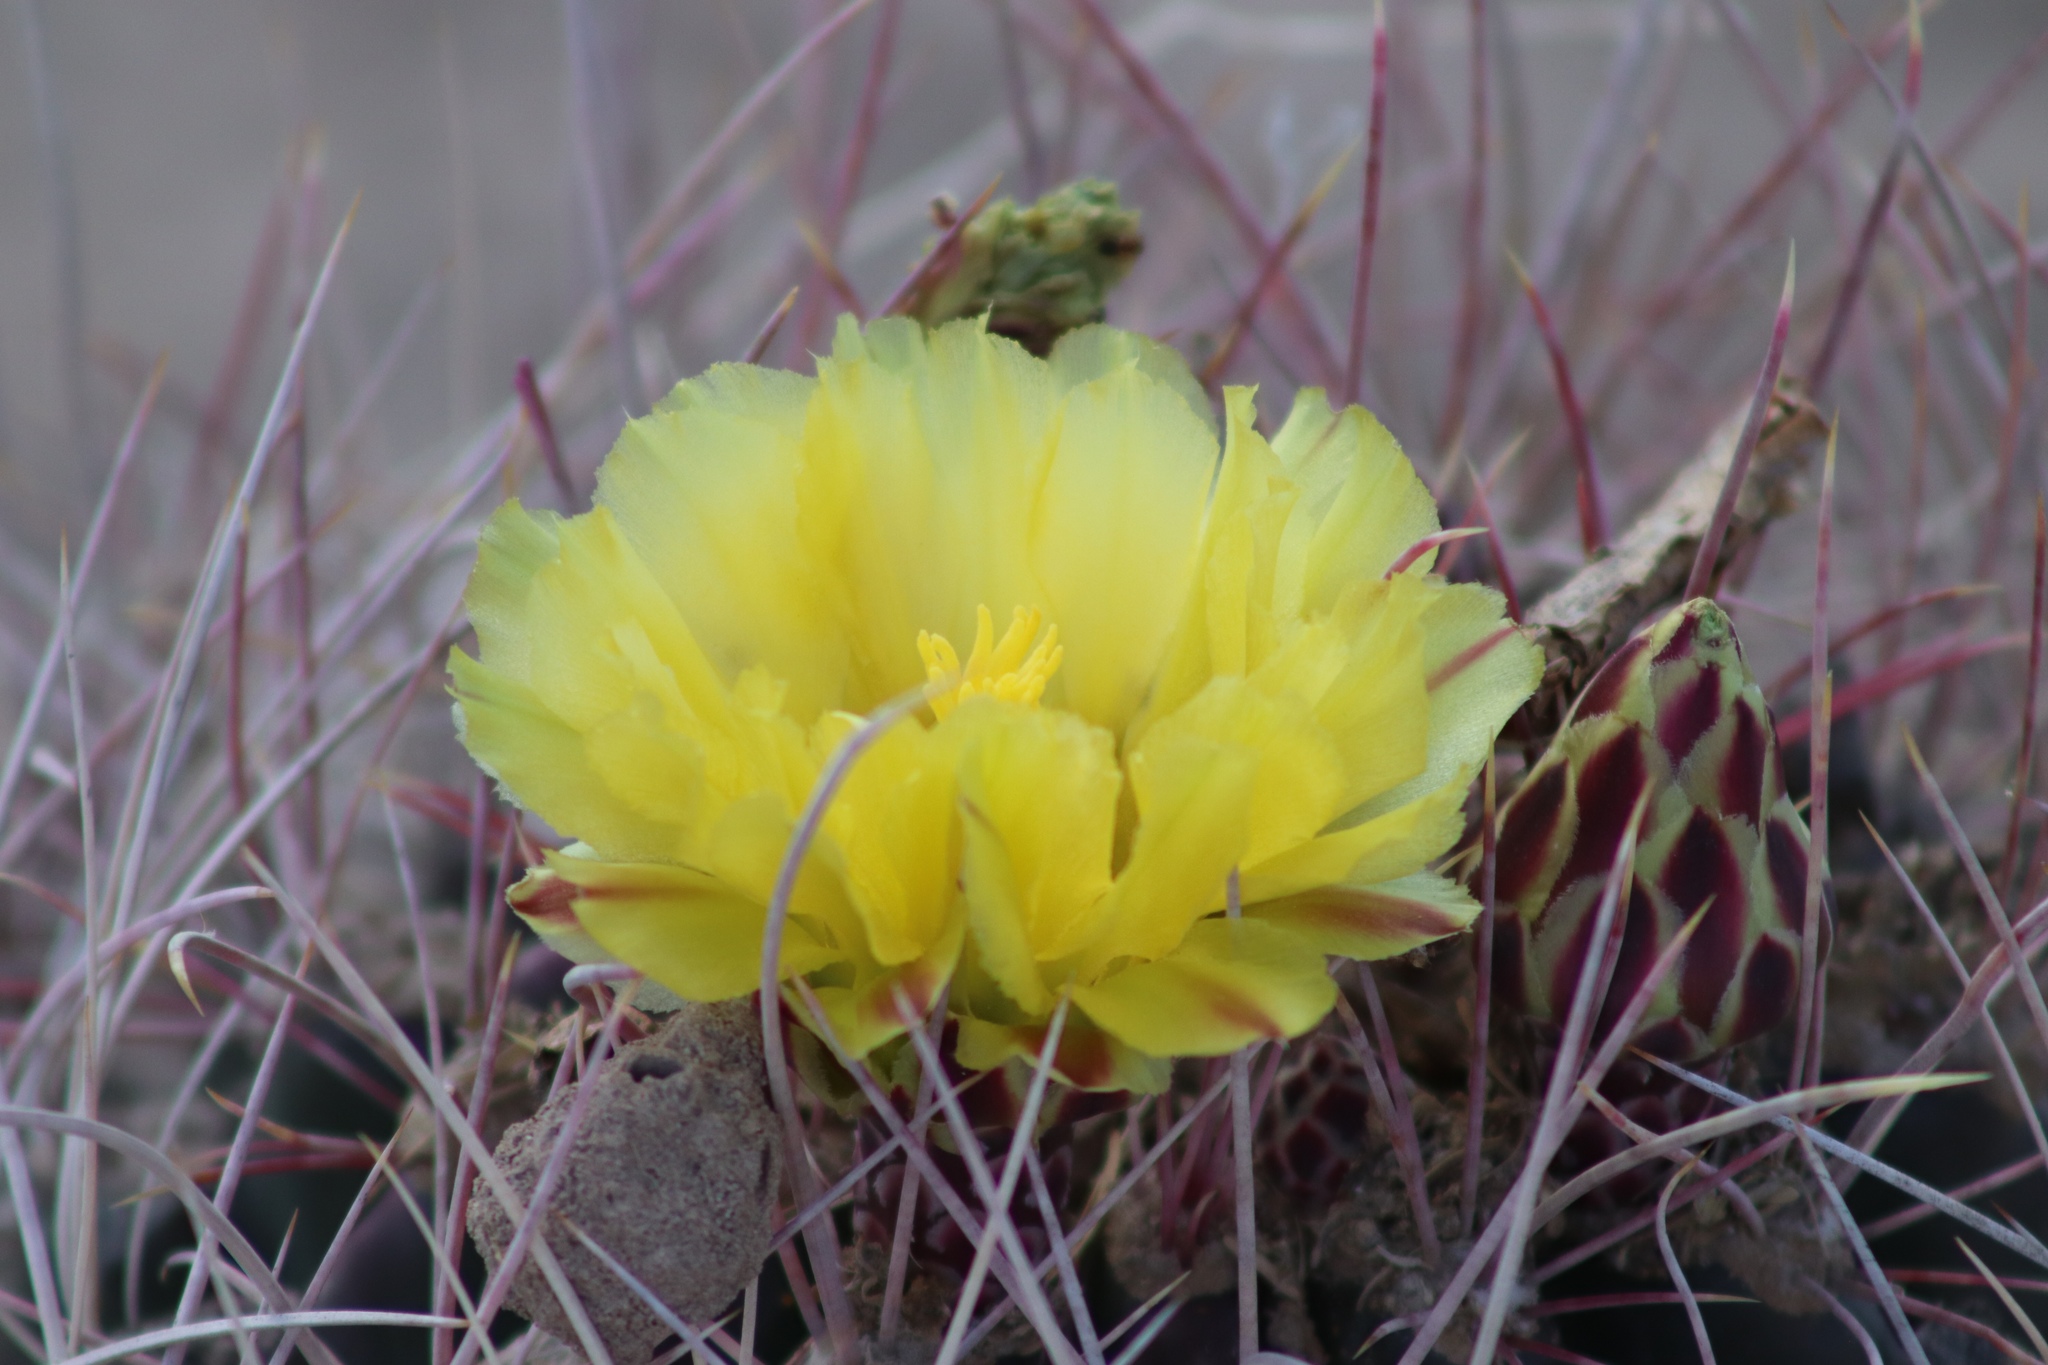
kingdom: Plantae
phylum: Tracheophyta
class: Magnoliopsida
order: Caryophyllales
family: Cactaceae
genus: Bisnaga
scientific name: Bisnaga hamatacantha
